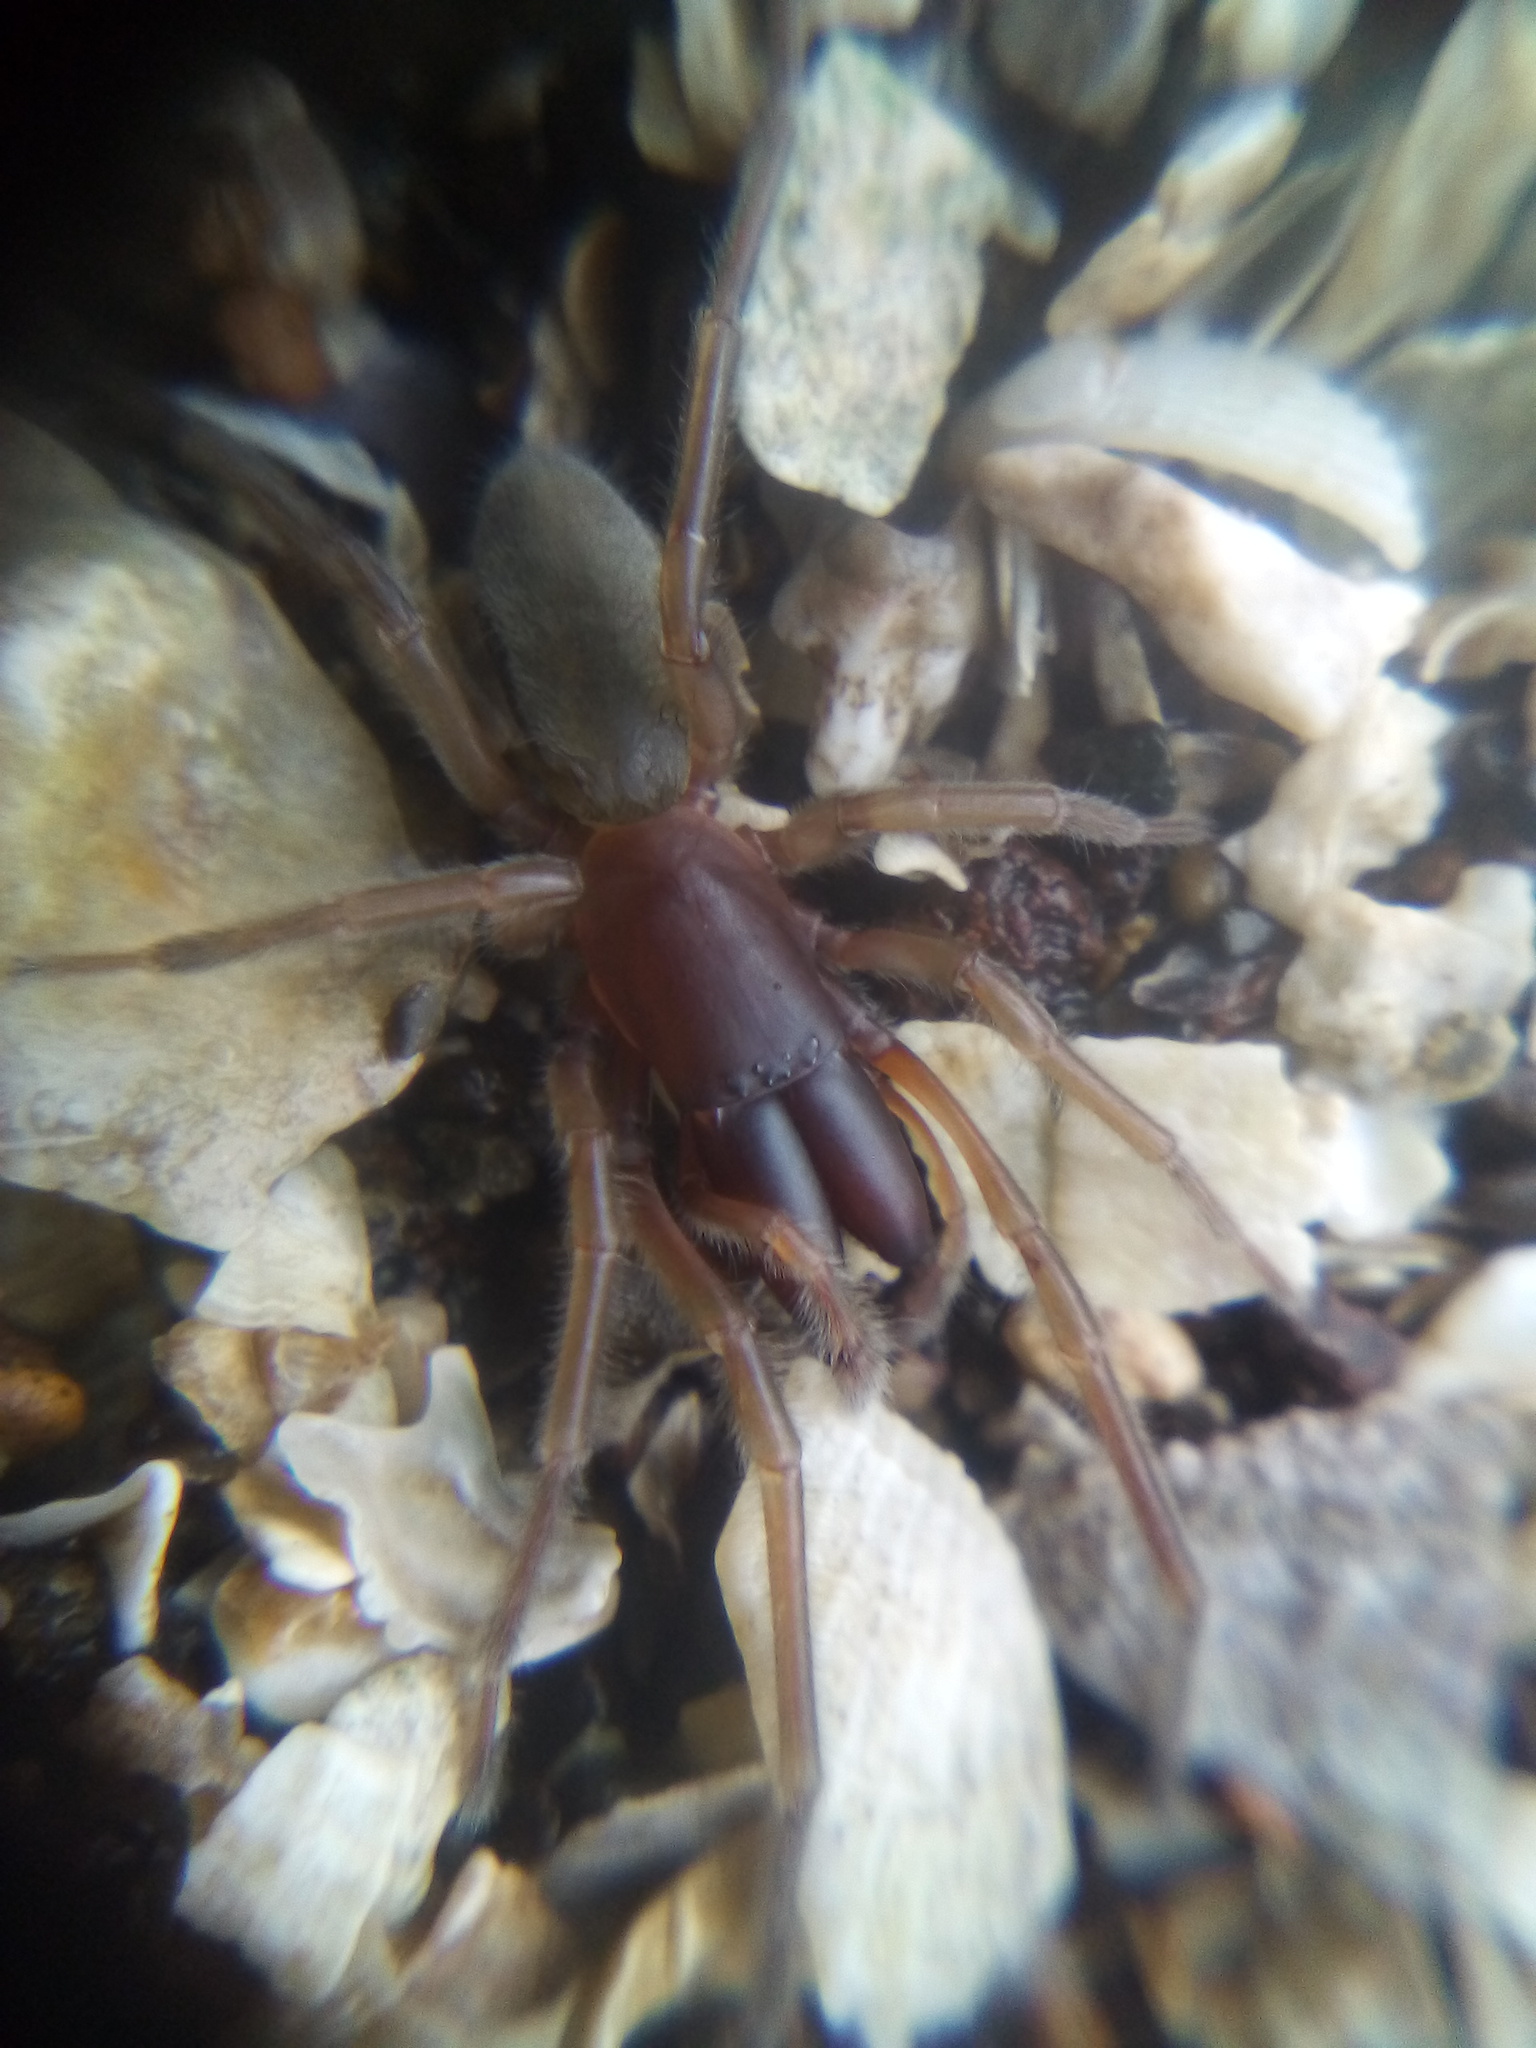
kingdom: Animalia
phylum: Arthropoda
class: Arachnida
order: Araneae
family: Desidae
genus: Desis
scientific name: Desis marina
